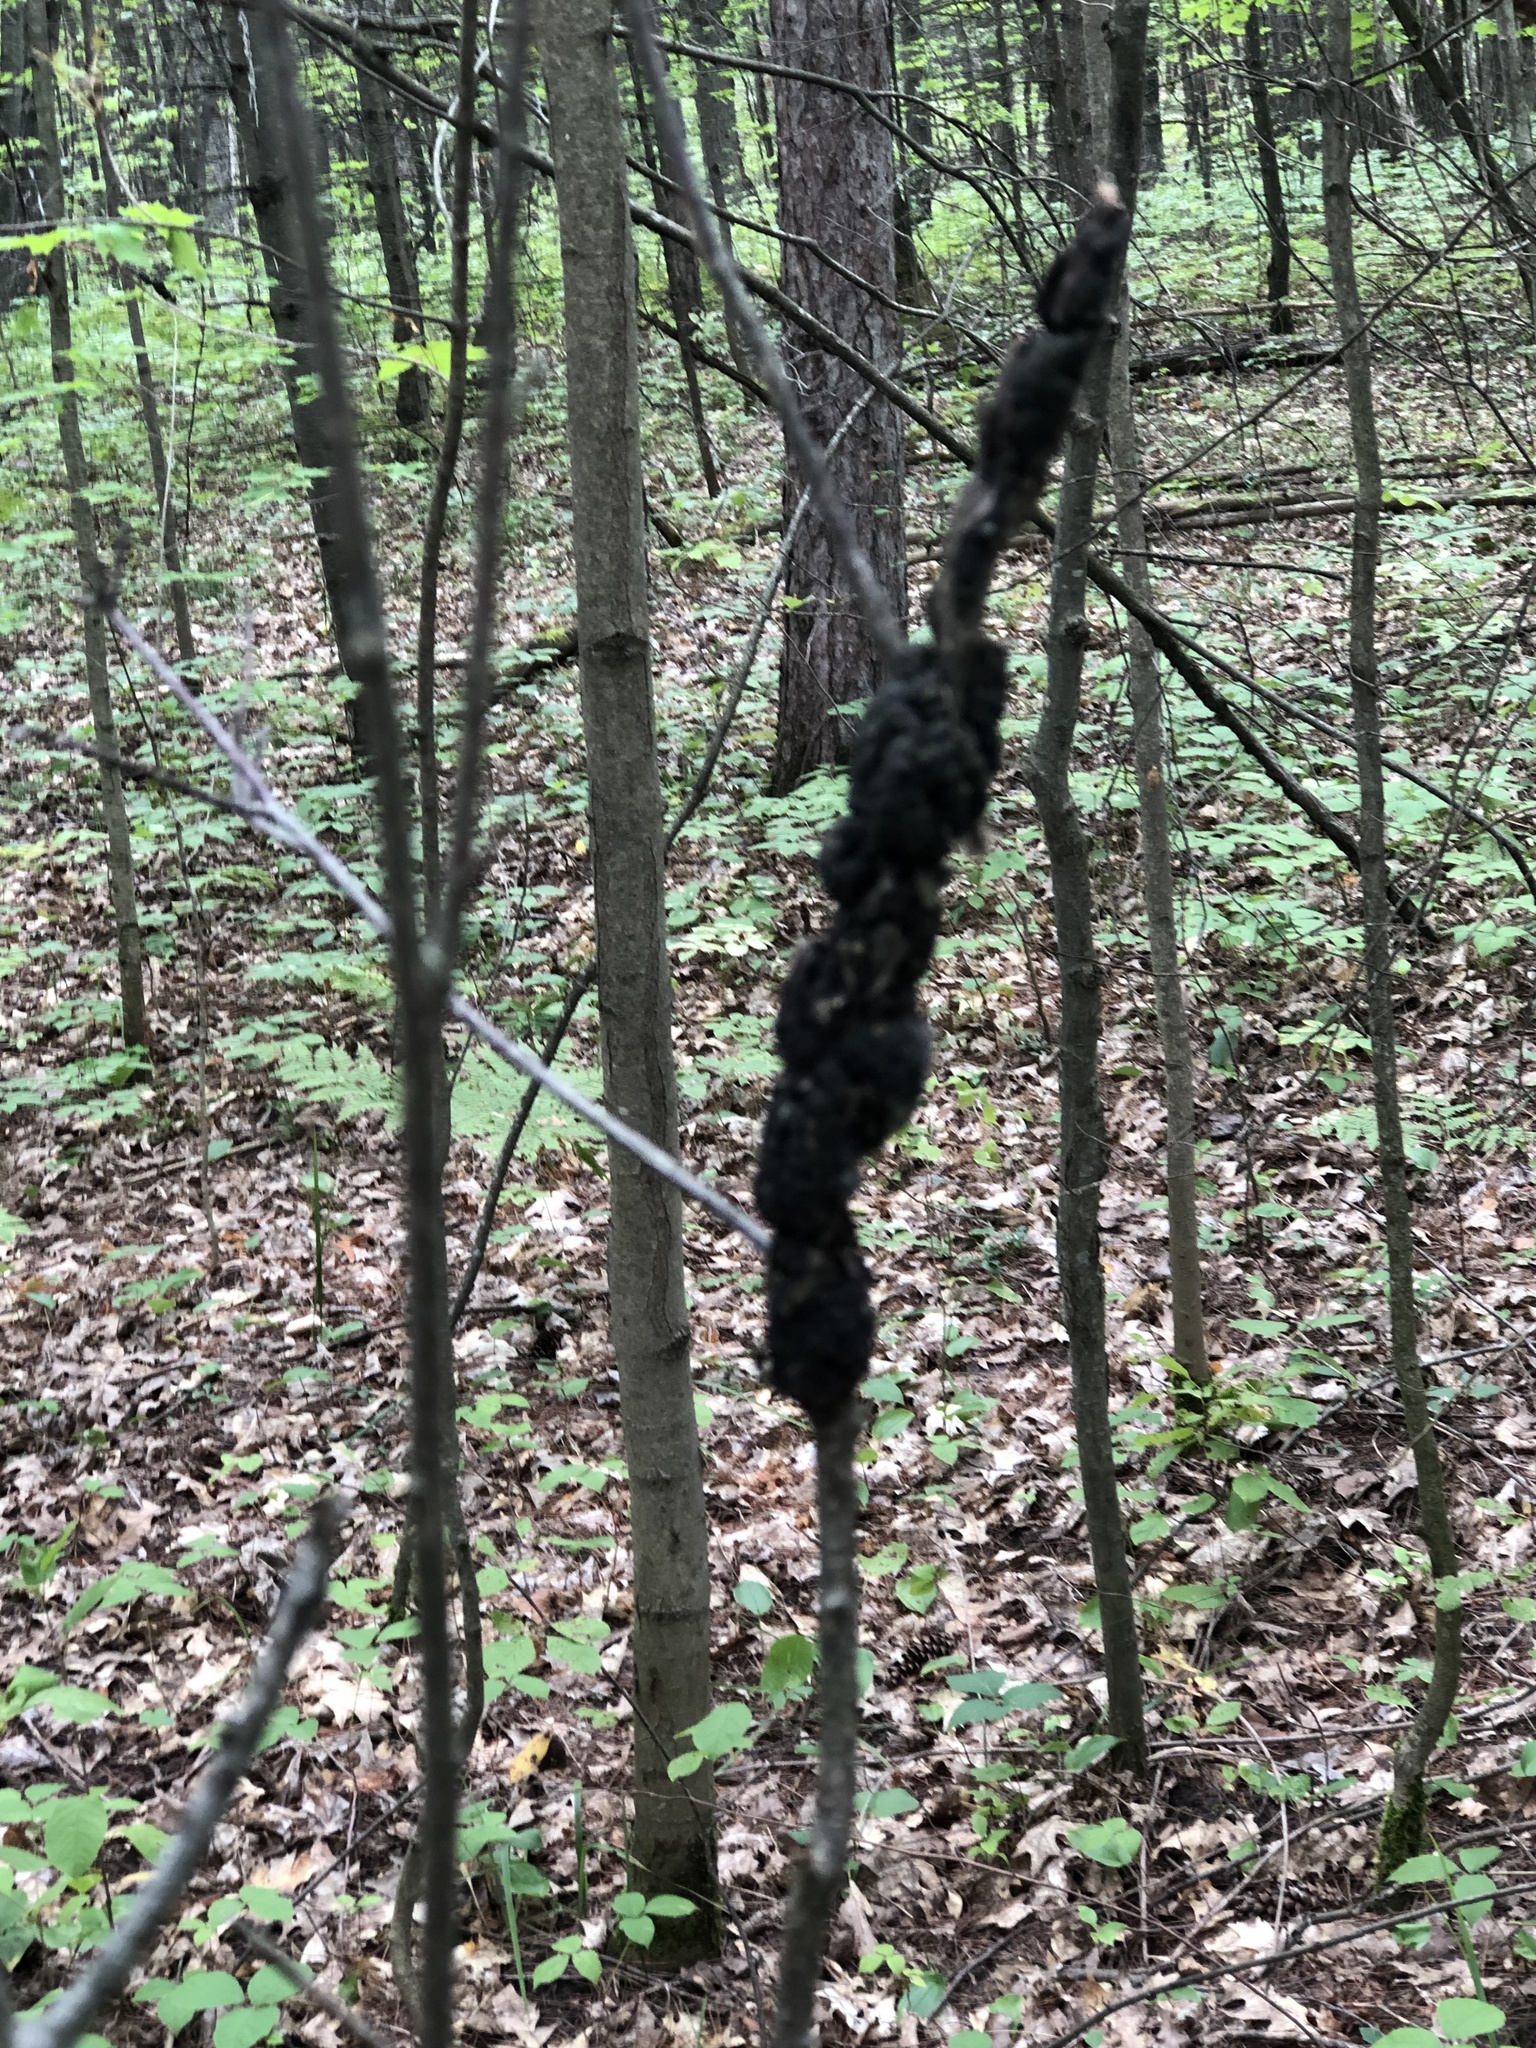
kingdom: Fungi
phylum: Ascomycota
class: Dothideomycetes
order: Venturiales
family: Venturiaceae
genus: Apiosporina
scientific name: Apiosporina morbosa
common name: Black knot
